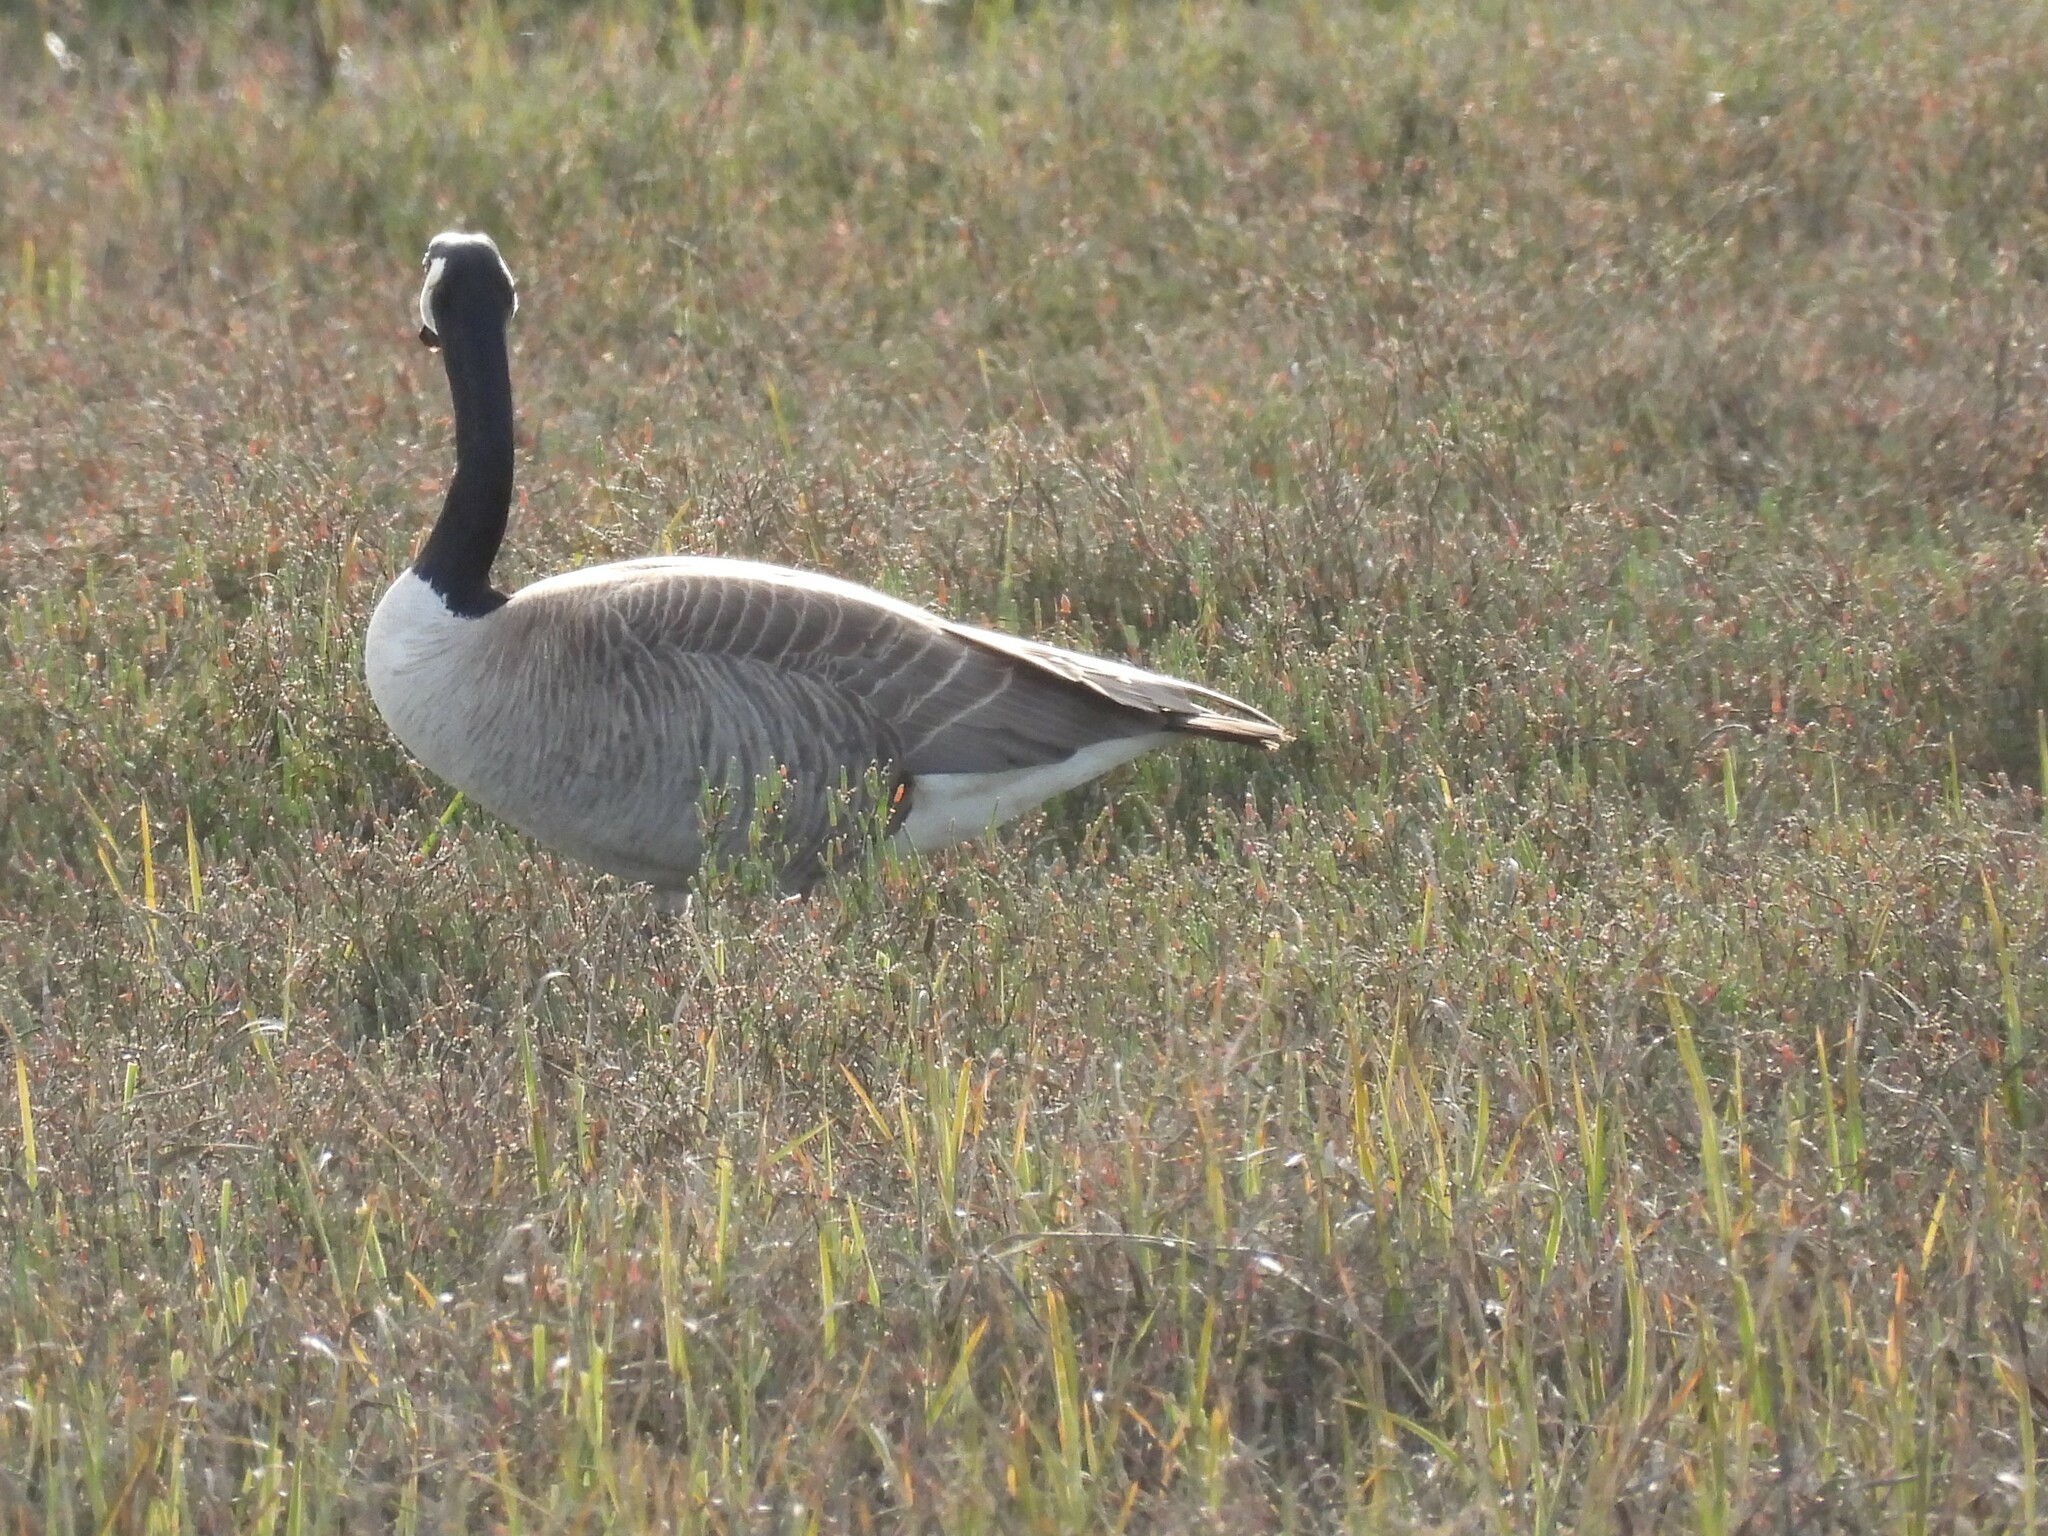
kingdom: Animalia
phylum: Chordata
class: Aves
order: Anseriformes
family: Anatidae
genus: Branta
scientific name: Branta canadensis
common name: Canada goose
